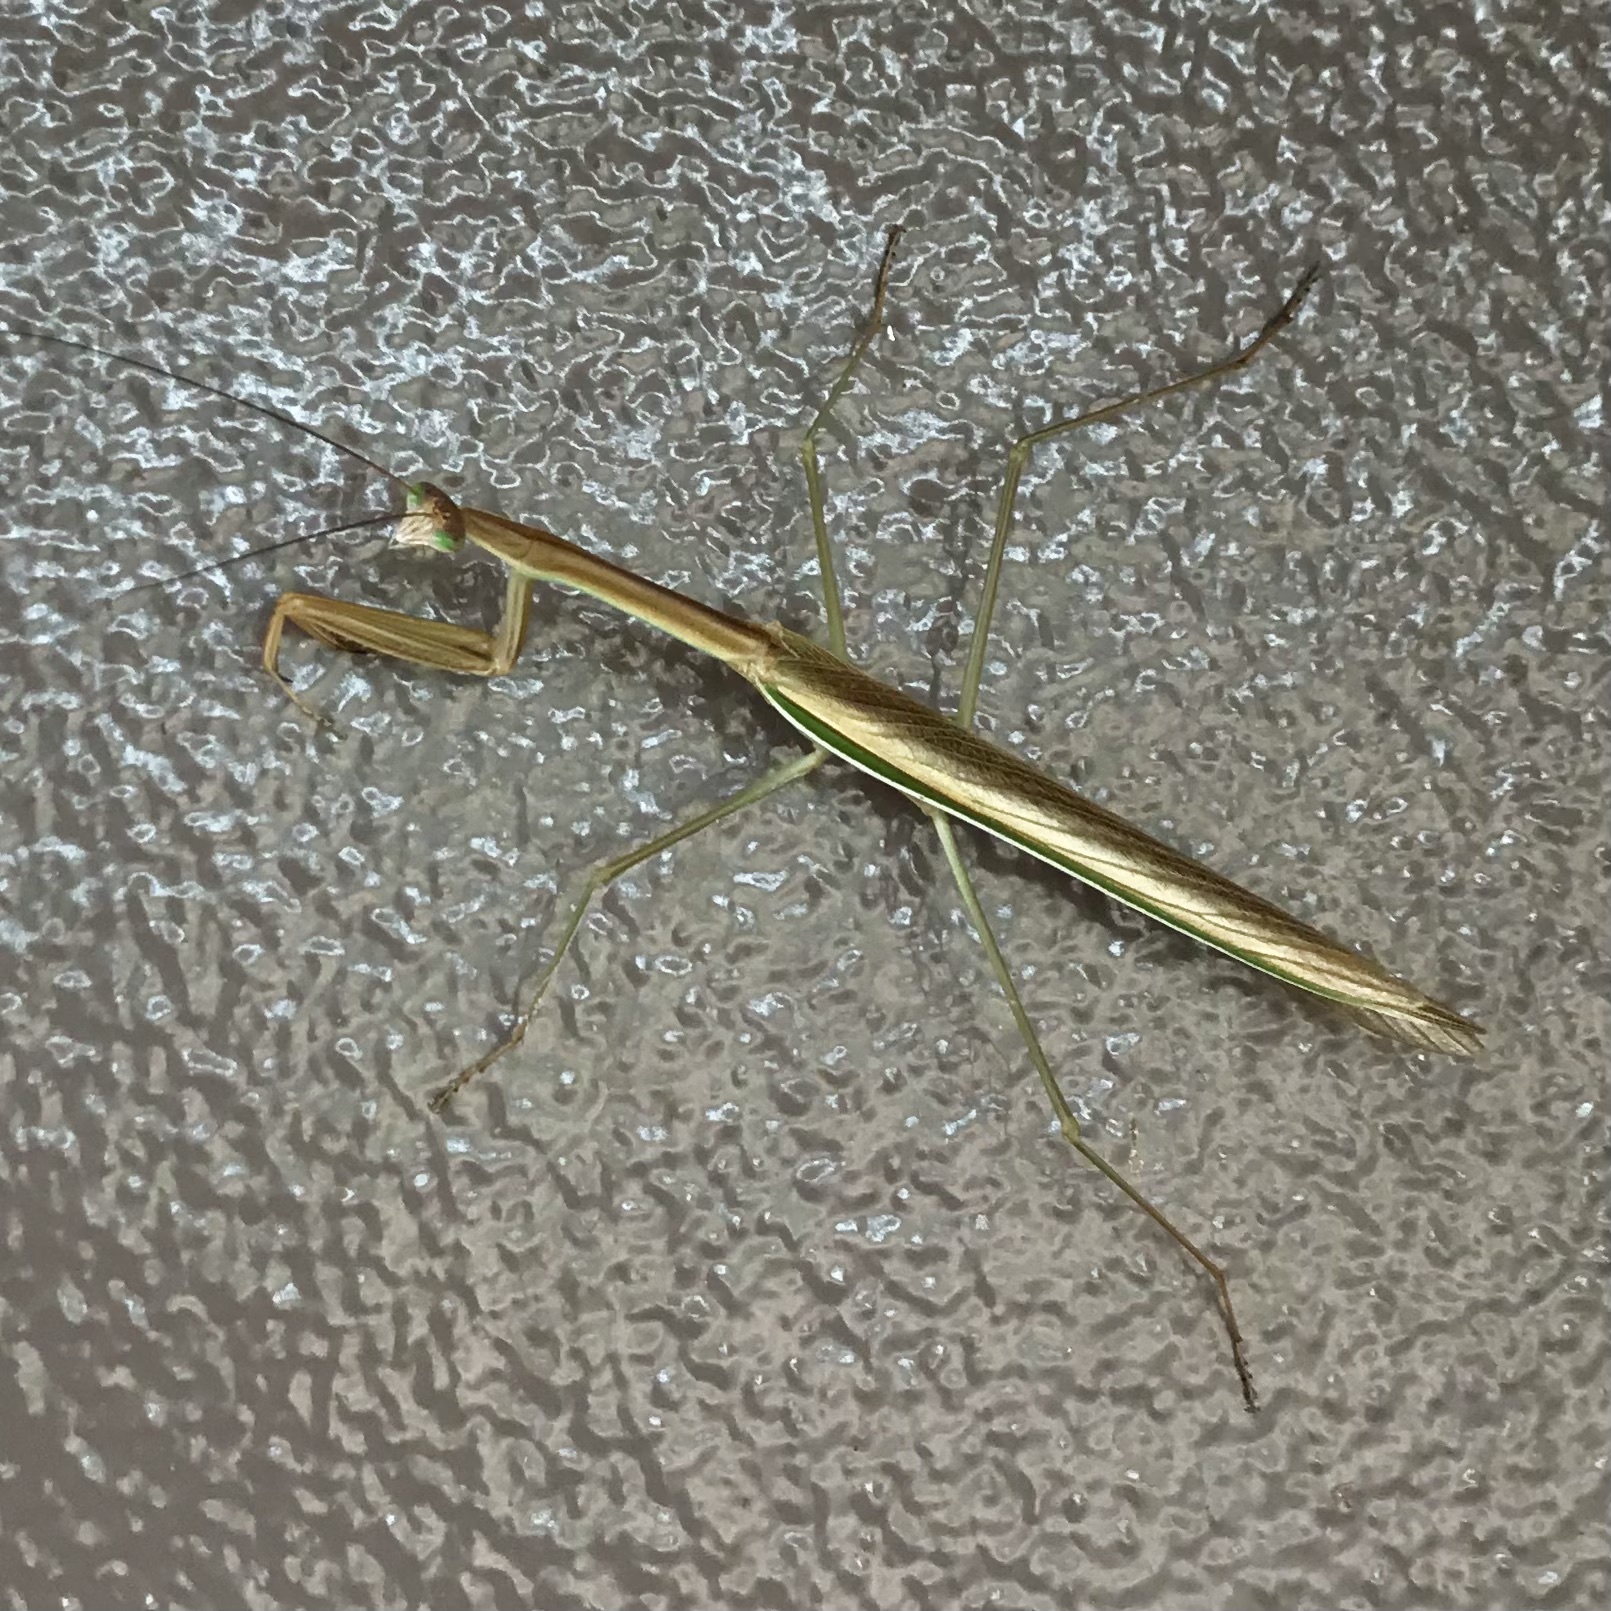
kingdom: Animalia
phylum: Arthropoda
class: Insecta
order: Mantodea
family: Mantidae
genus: Tenodera
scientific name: Tenodera australasiae
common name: Purple-winged mantis
